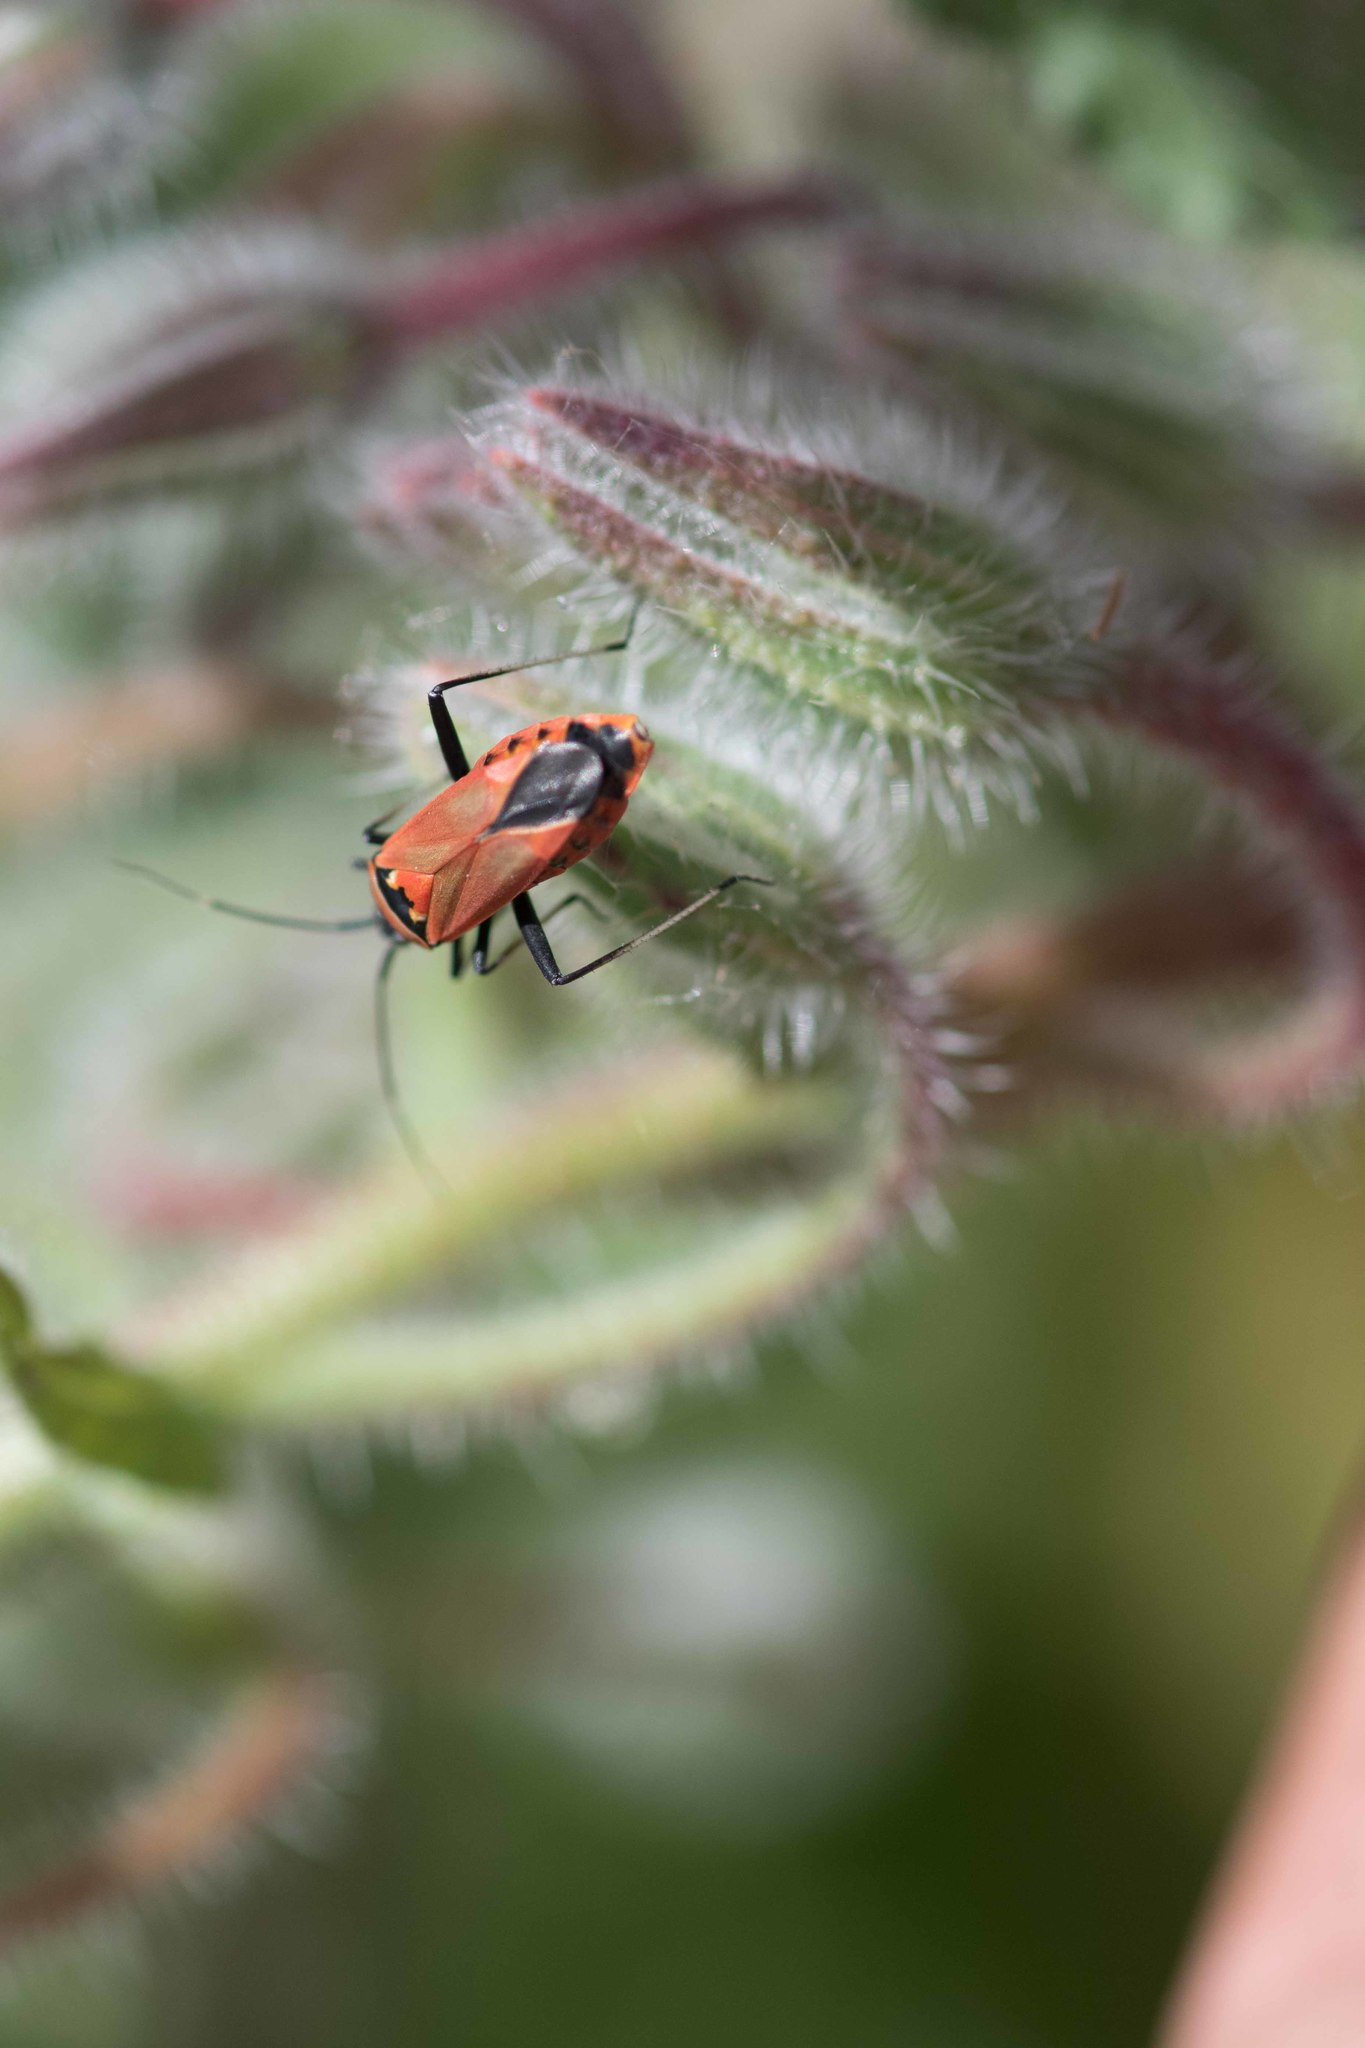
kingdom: Animalia
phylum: Arthropoda
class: Insecta
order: Hemiptera
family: Miridae
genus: Calocoris
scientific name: Calocoris nemoralis
